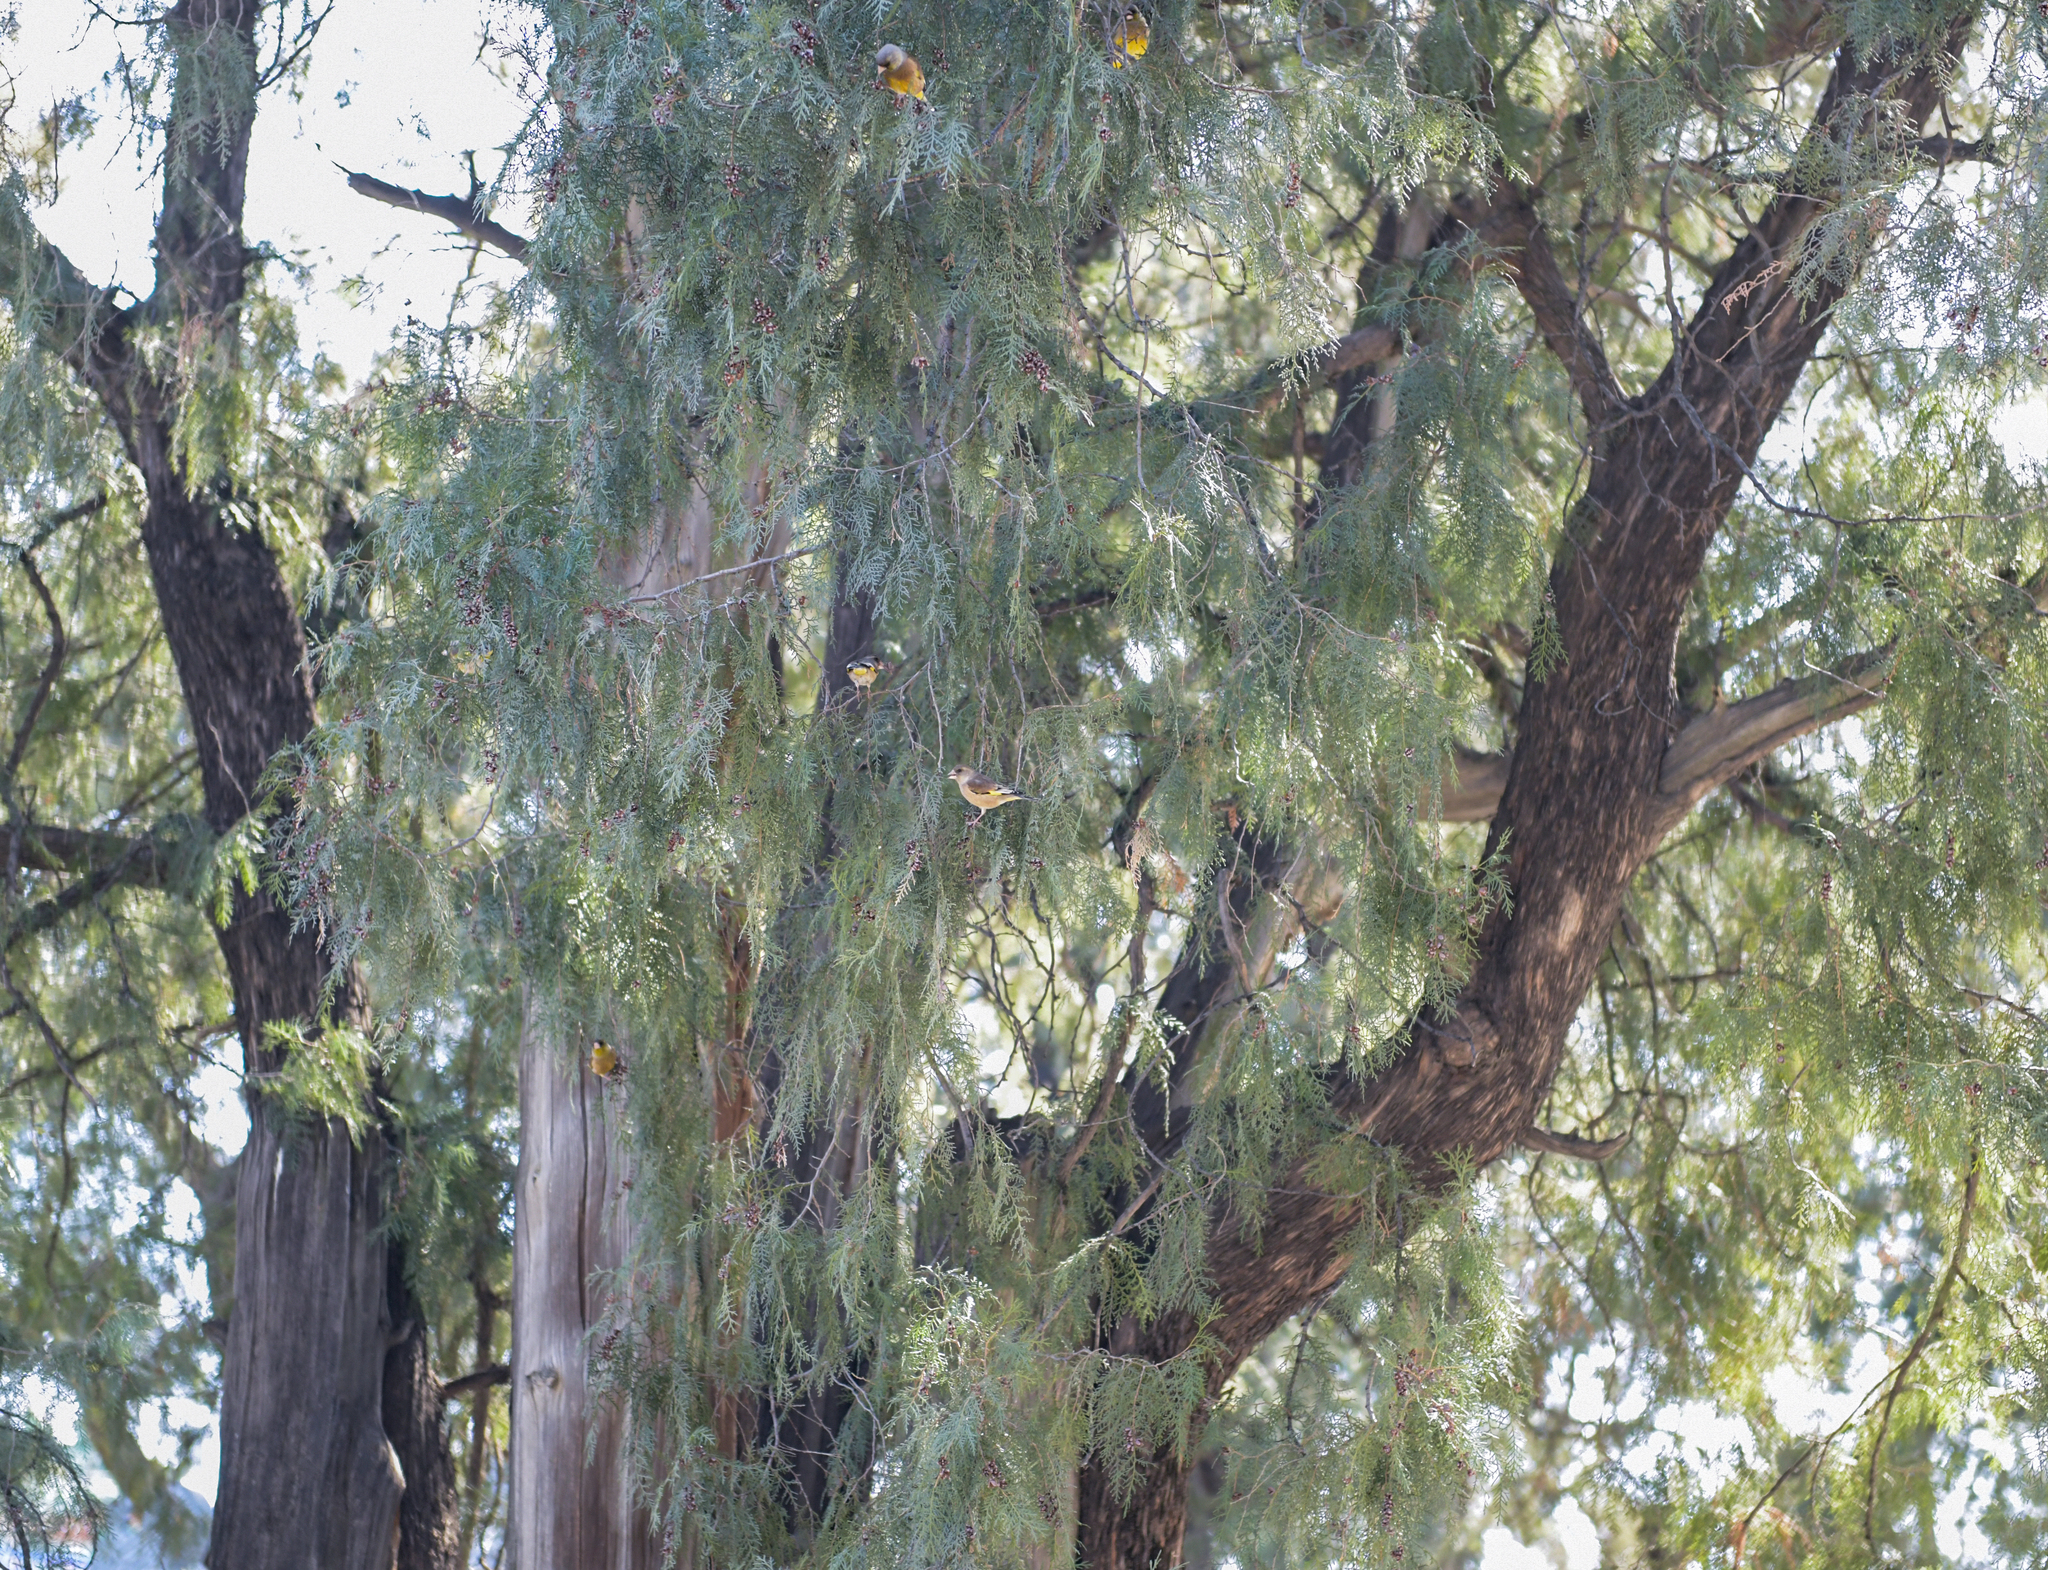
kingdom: Plantae
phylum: Tracheophyta
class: Liliopsida
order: Poales
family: Poaceae
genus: Chloris
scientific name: Chloris sinica
